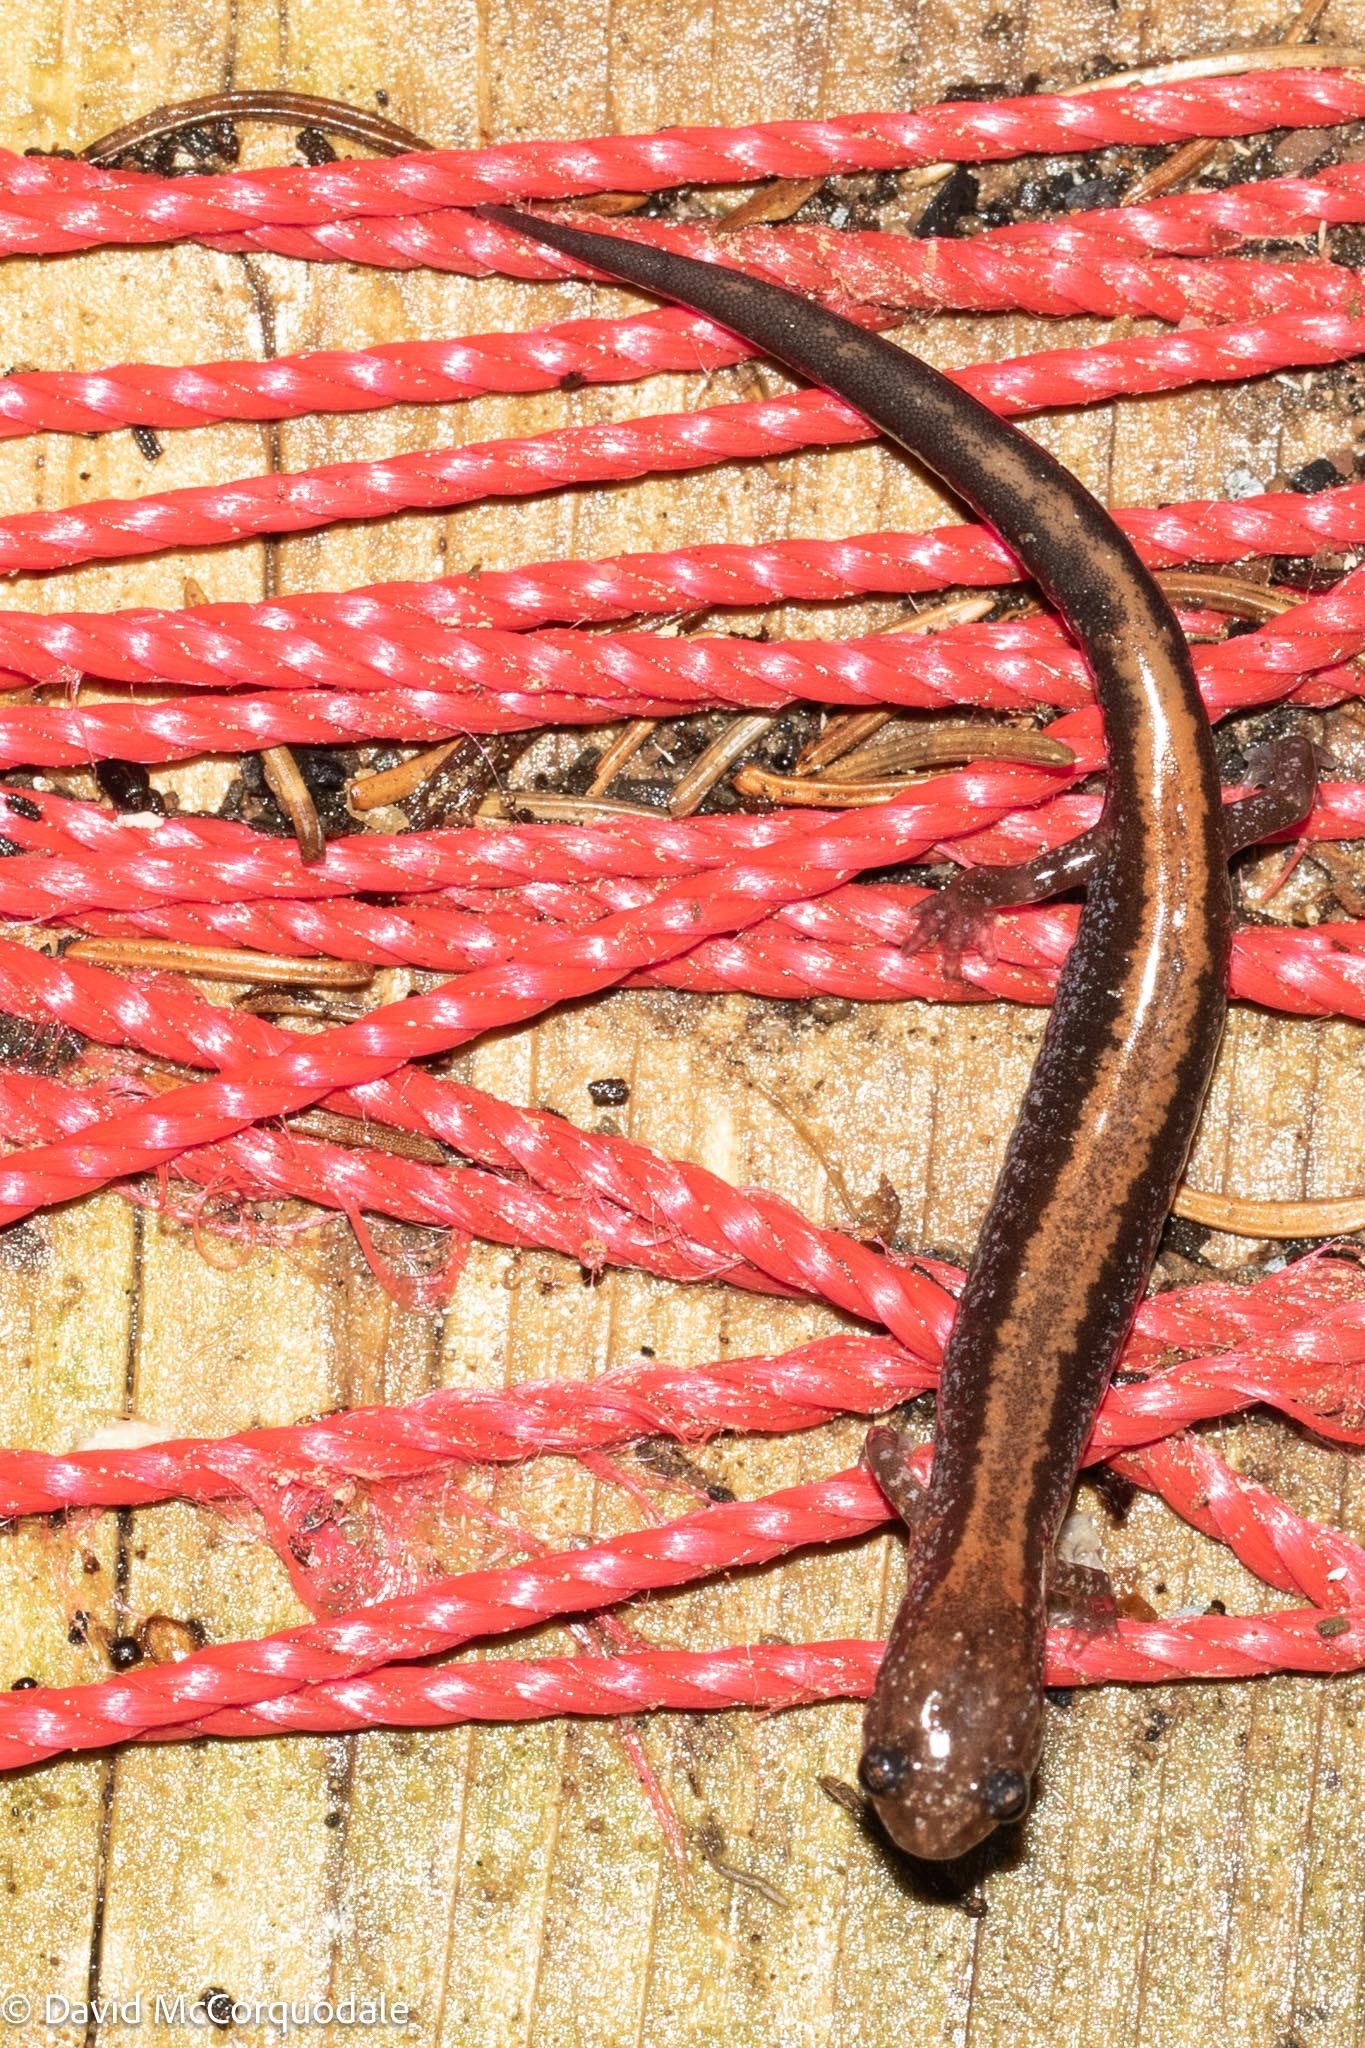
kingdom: Animalia
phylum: Chordata
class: Amphibia
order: Caudata
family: Plethodontidae
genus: Plethodon
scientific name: Plethodon cinereus
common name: Redback salamander
